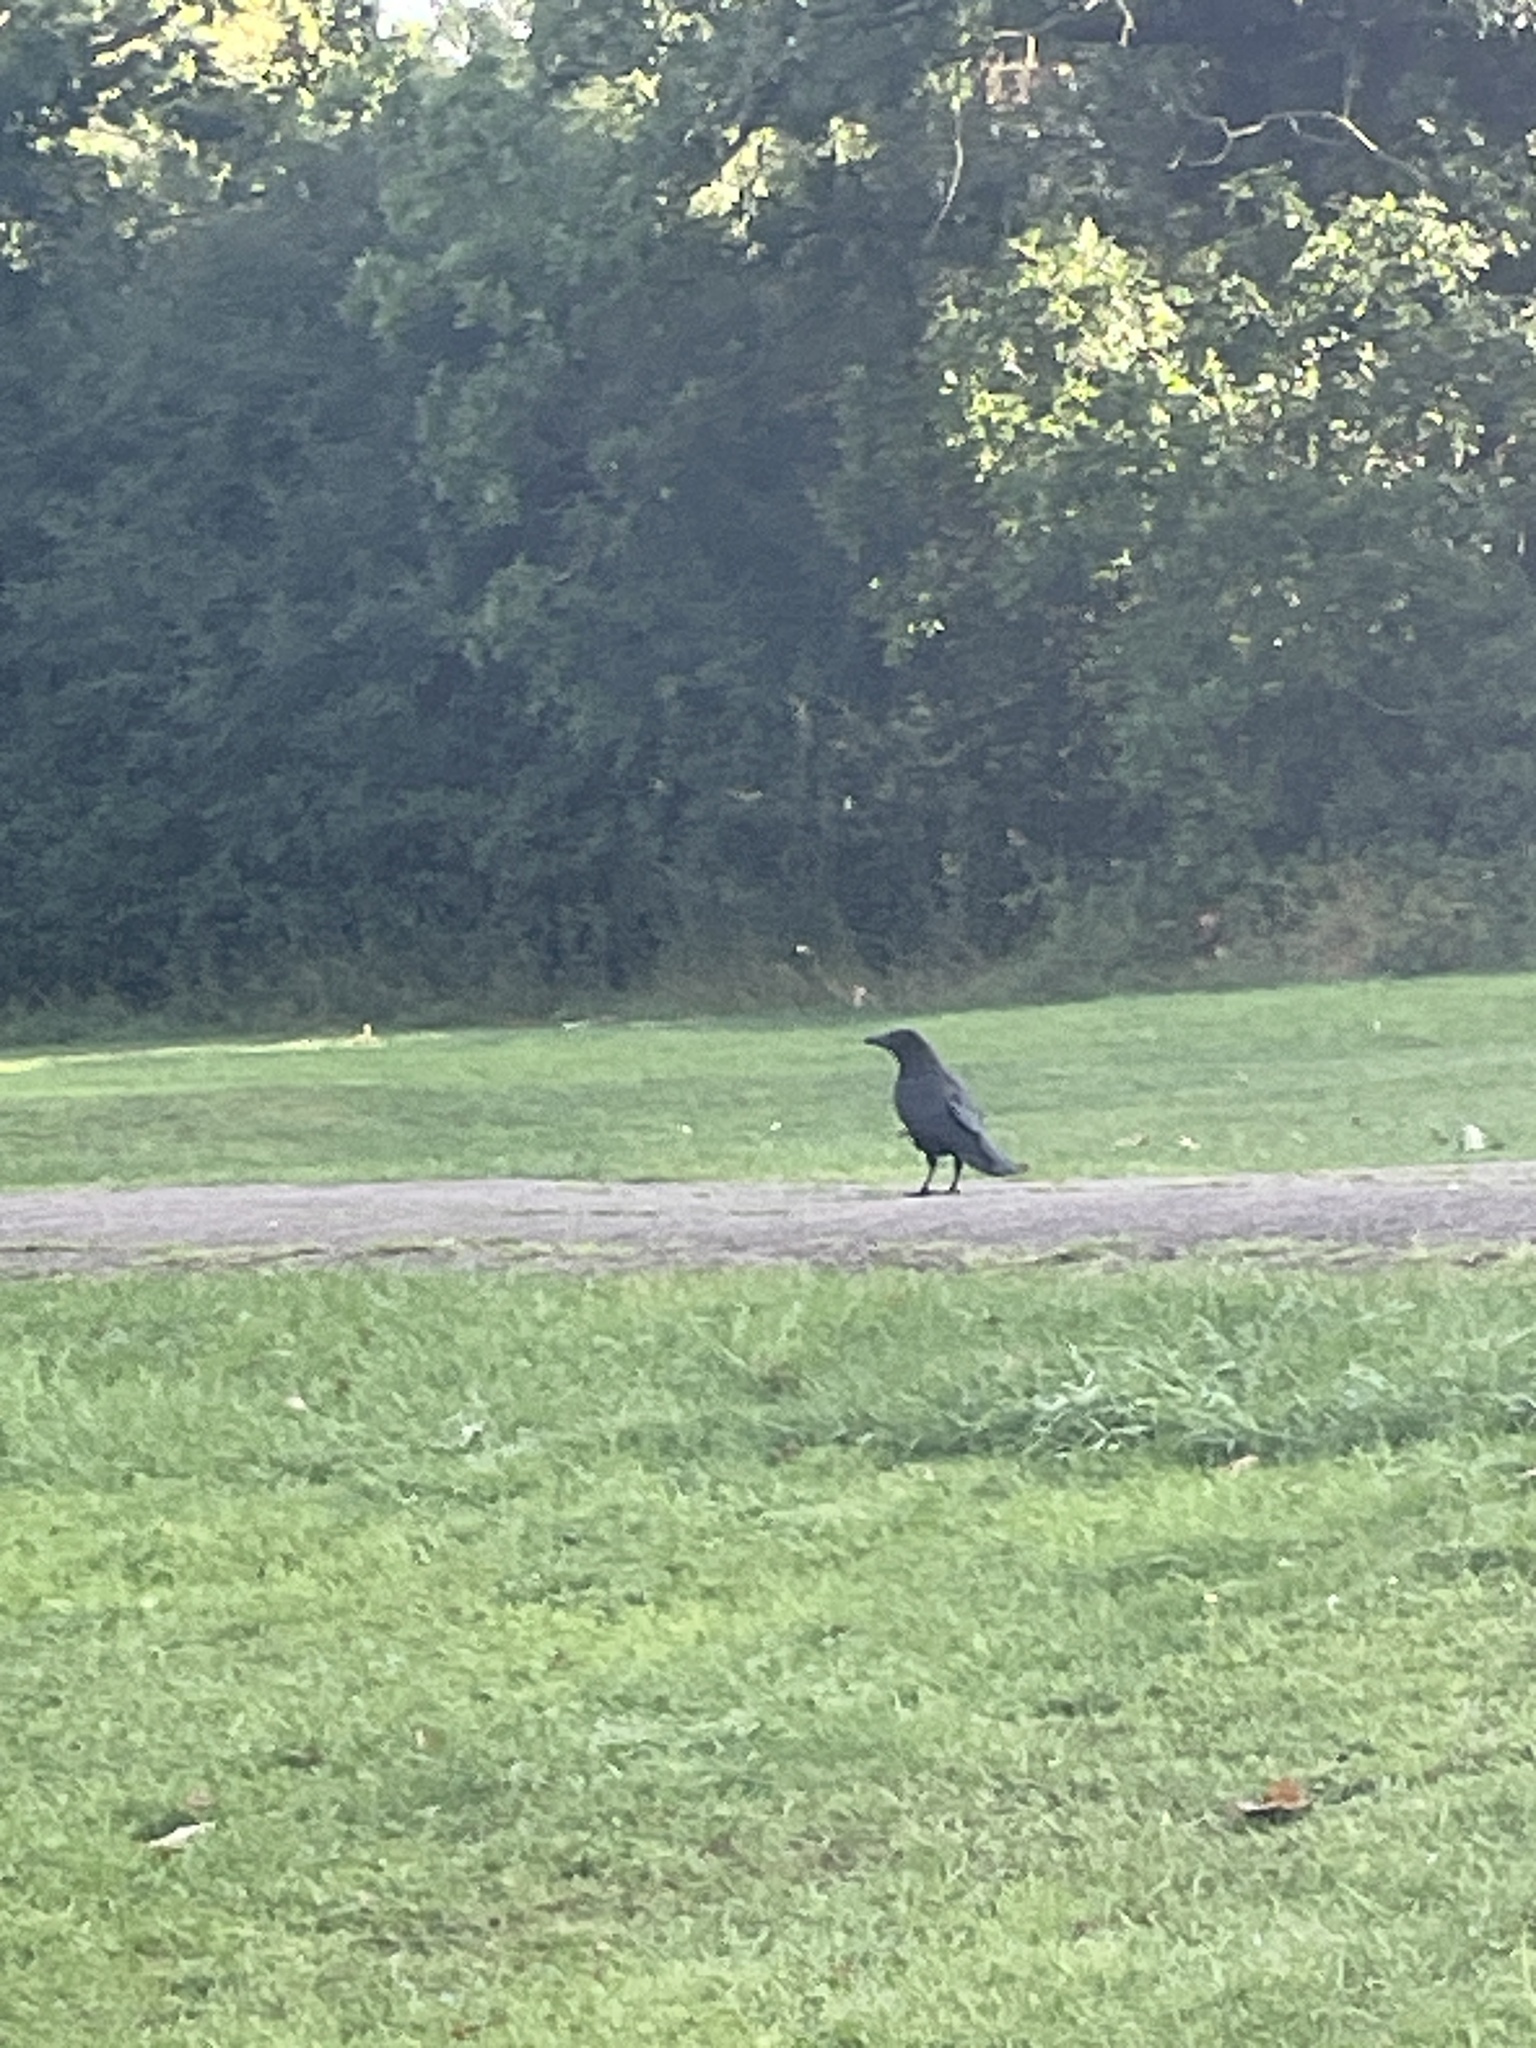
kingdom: Animalia
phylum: Chordata
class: Aves
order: Passeriformes
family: Corvidae
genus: Corvus
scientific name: Corvus corone
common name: Carrion crow
